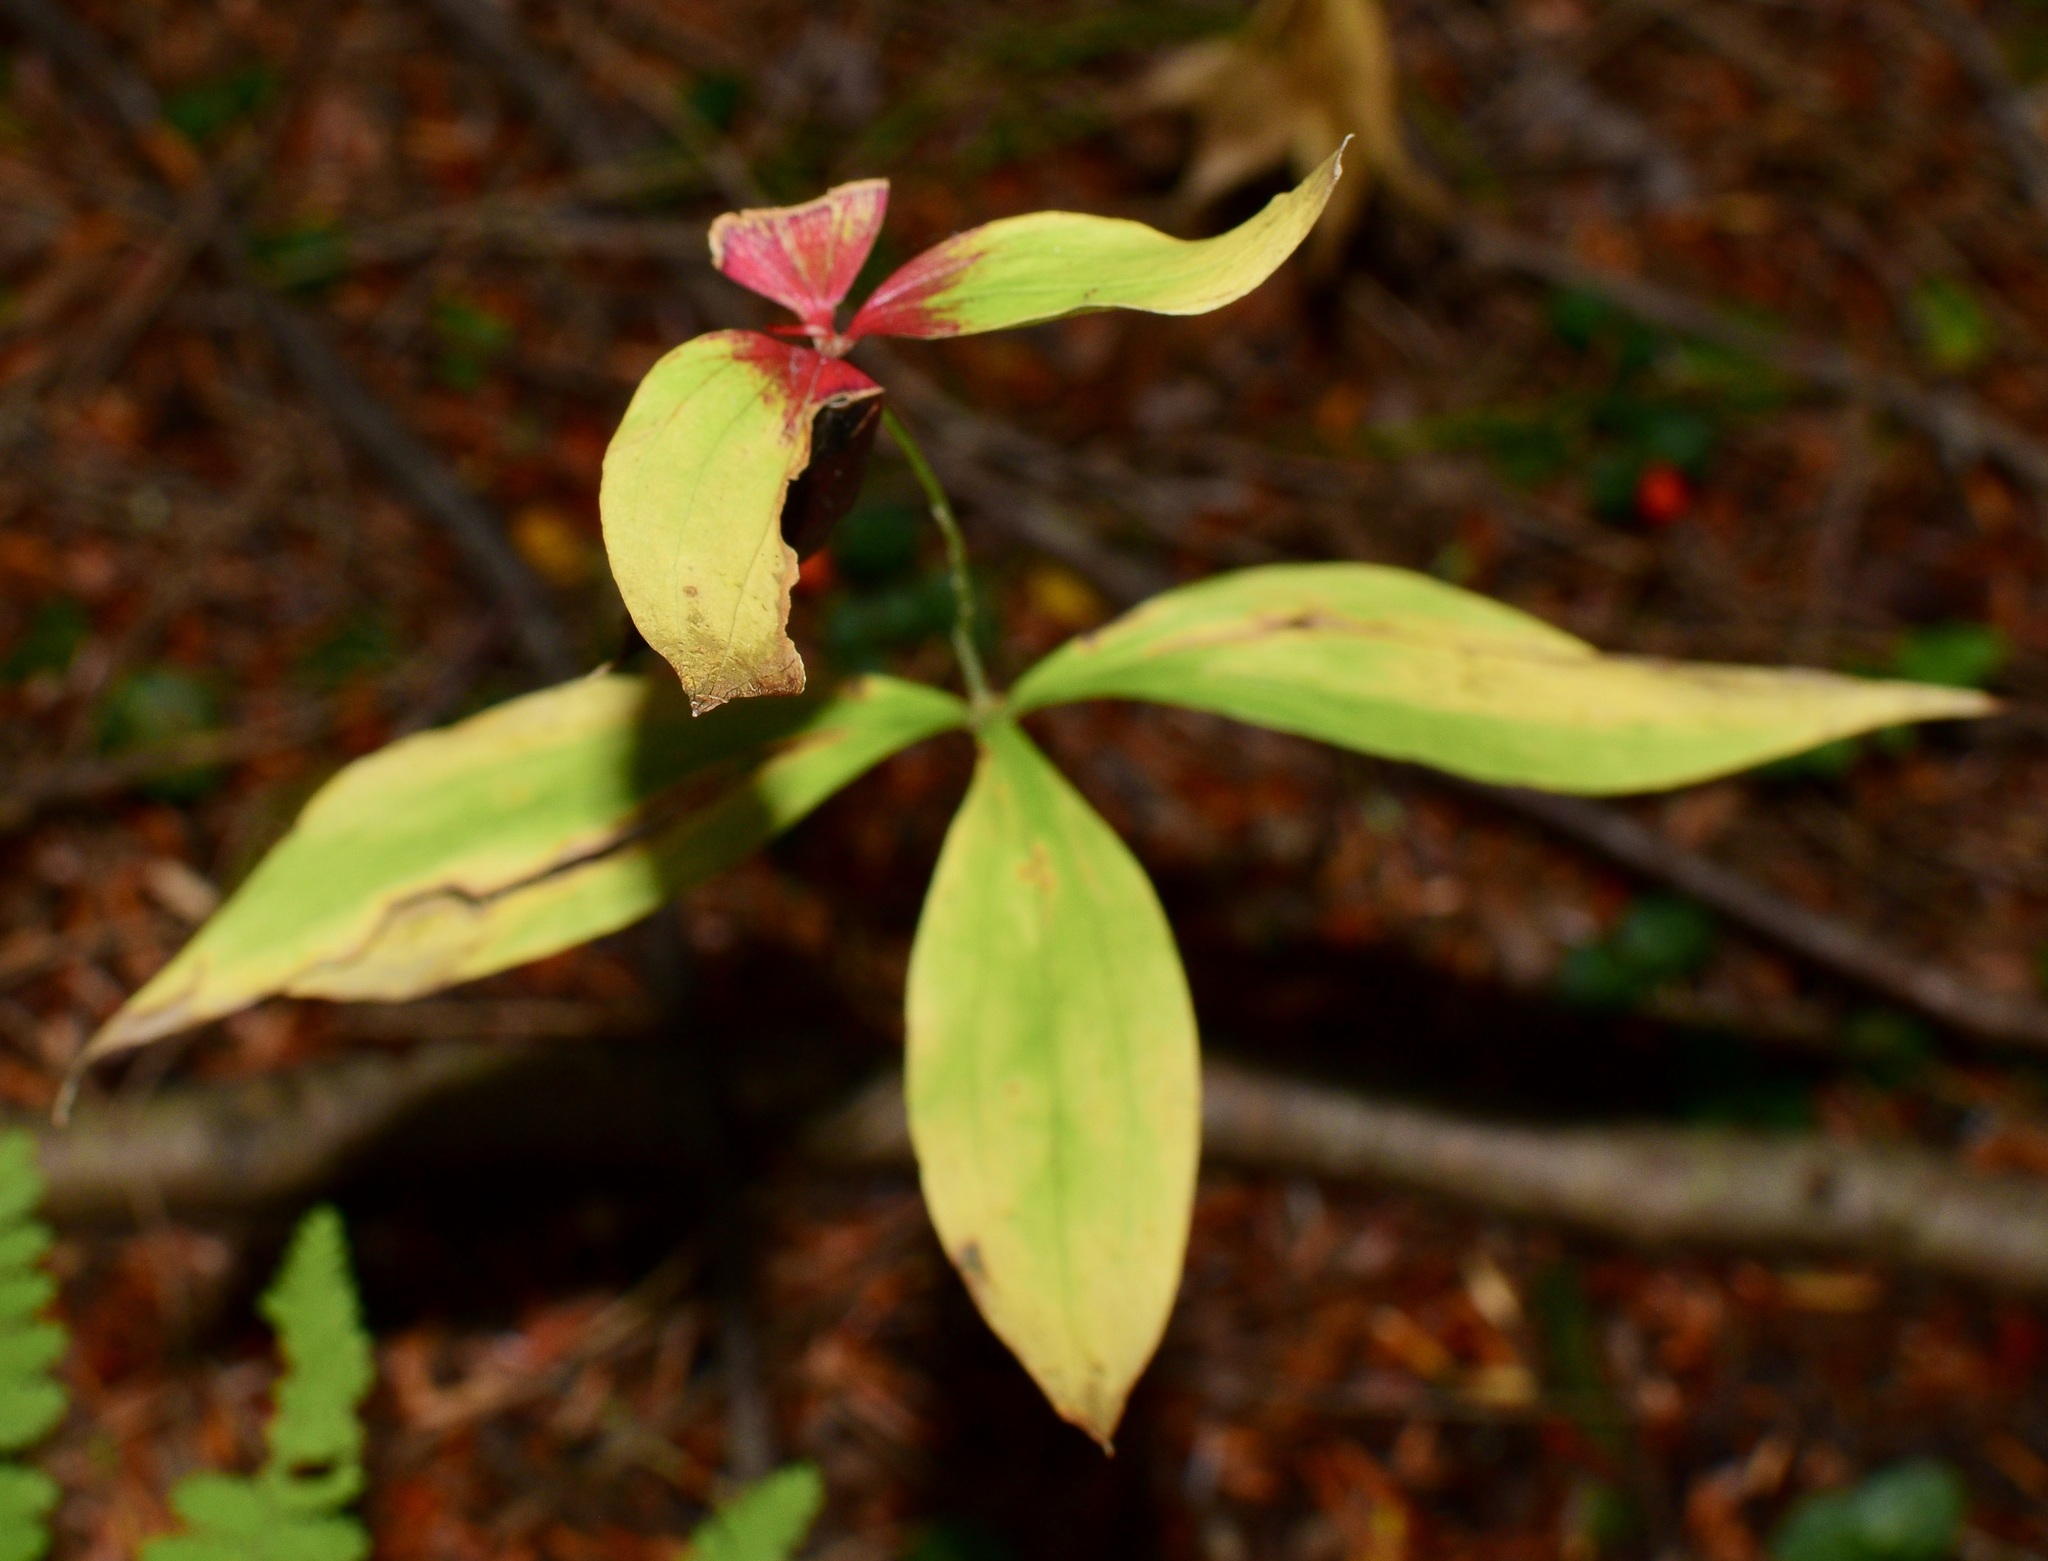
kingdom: Plantae
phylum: Tracheophyta
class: Liliopsida
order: Liliales
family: Liliaceae
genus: Medeola
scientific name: Medeola virginiana
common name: Indian cucumber-root
